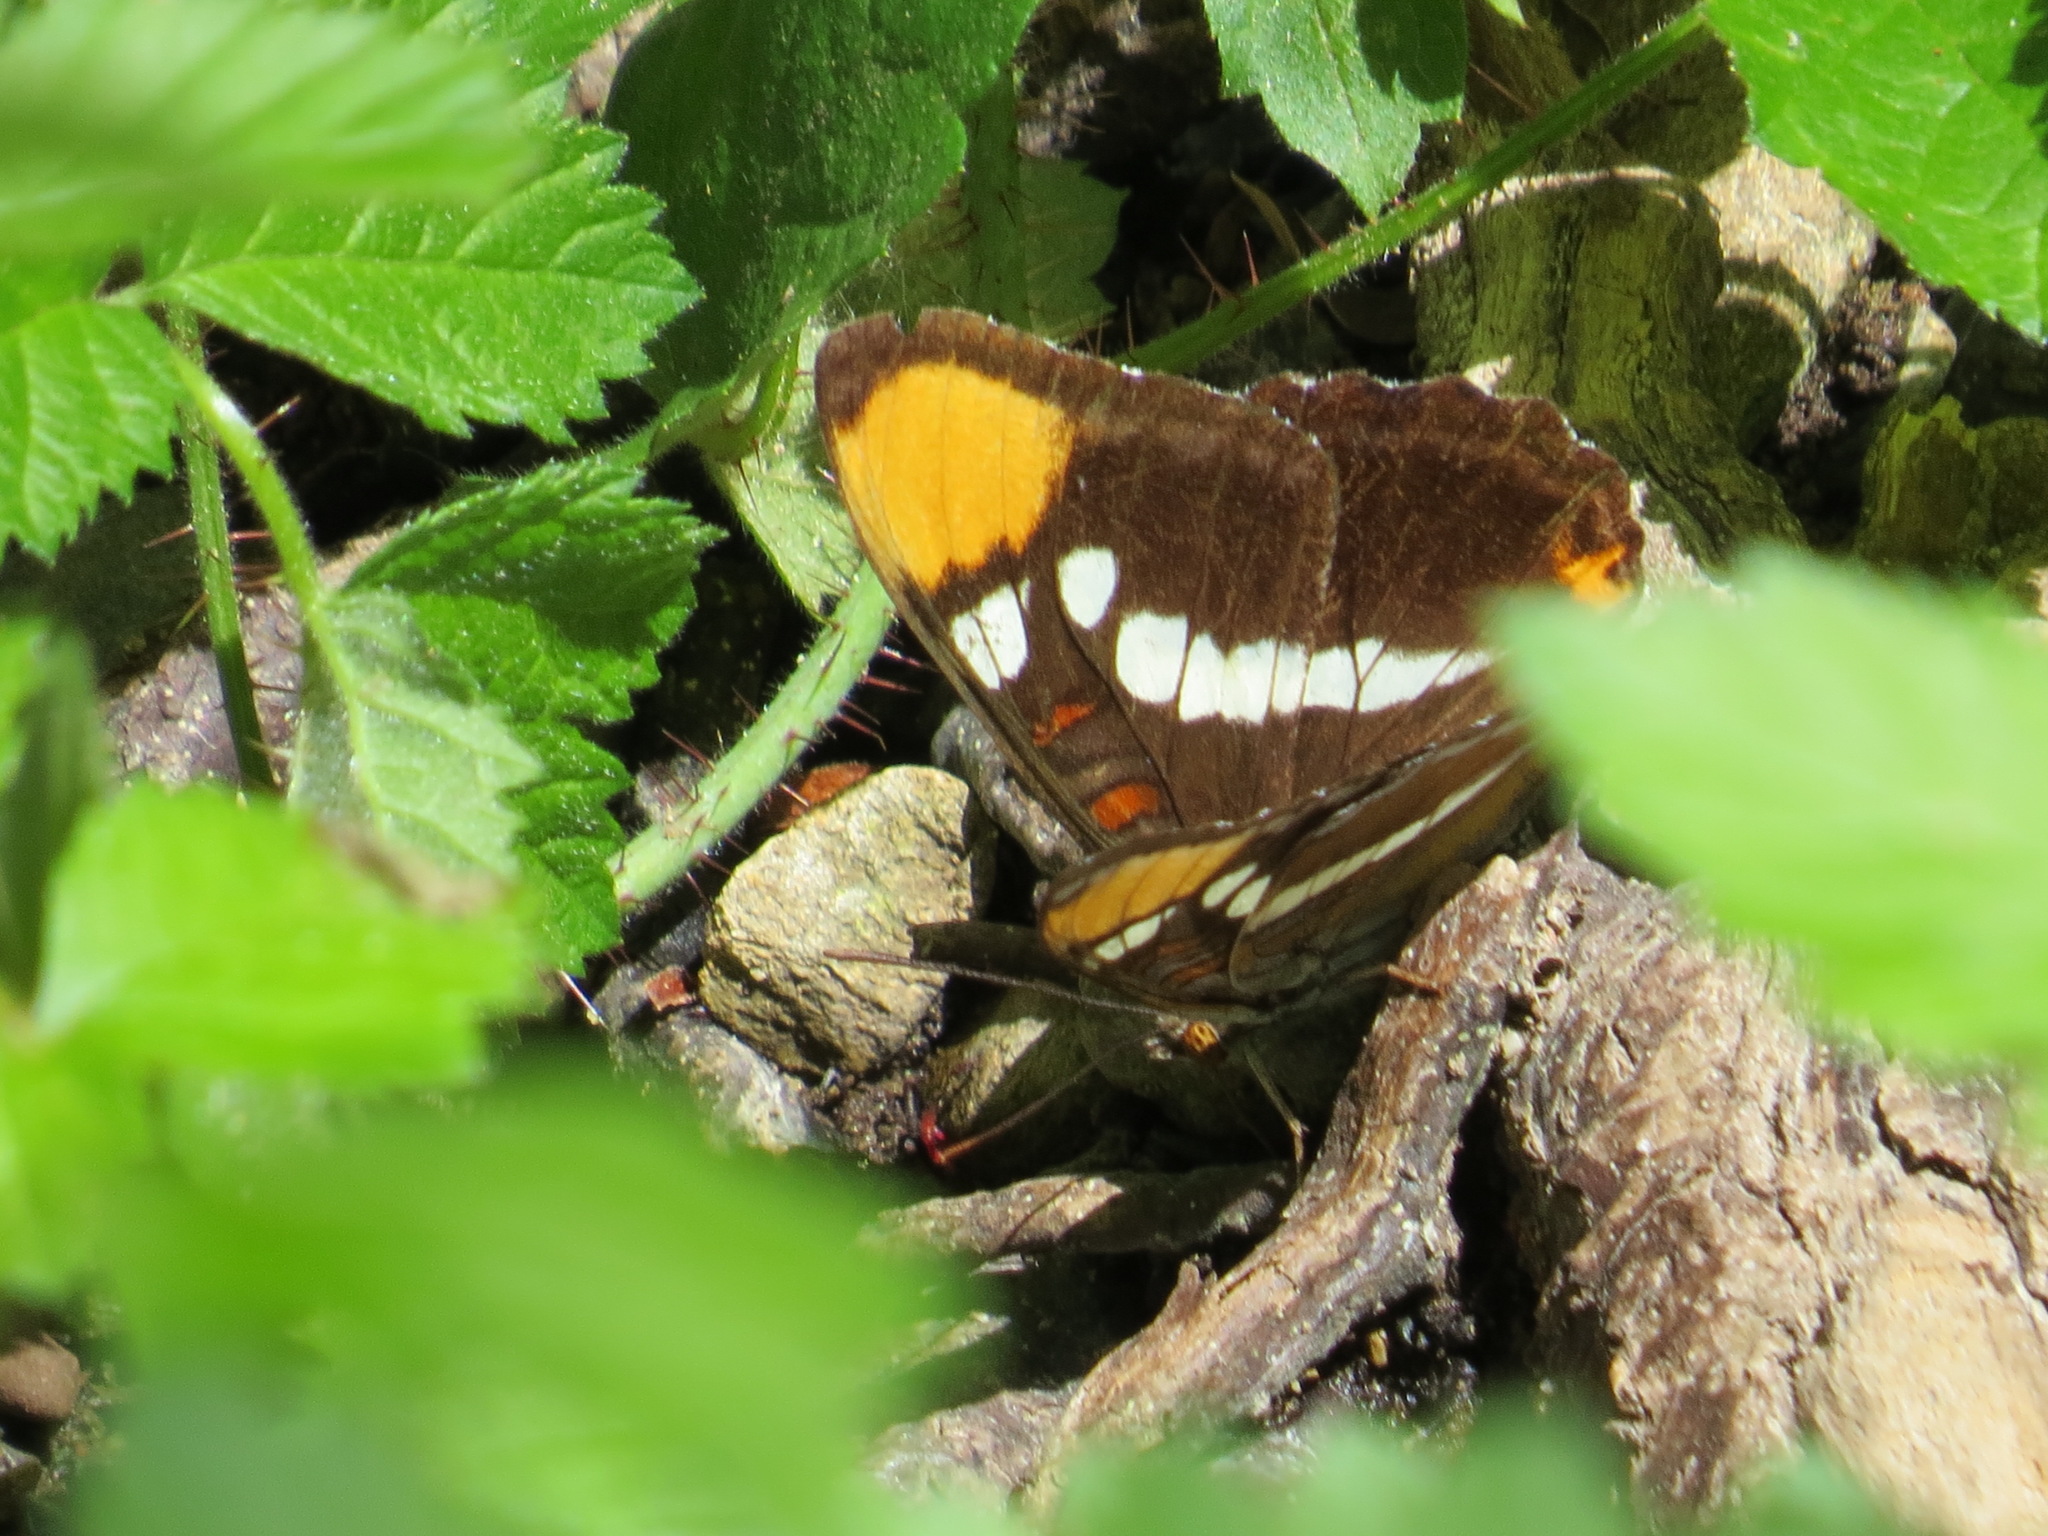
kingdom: Animalia
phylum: Arthropoda
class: Insecta
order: Lepidoptera
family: Nymphalidae
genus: Limenitis
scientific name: Limenitis bredowii
